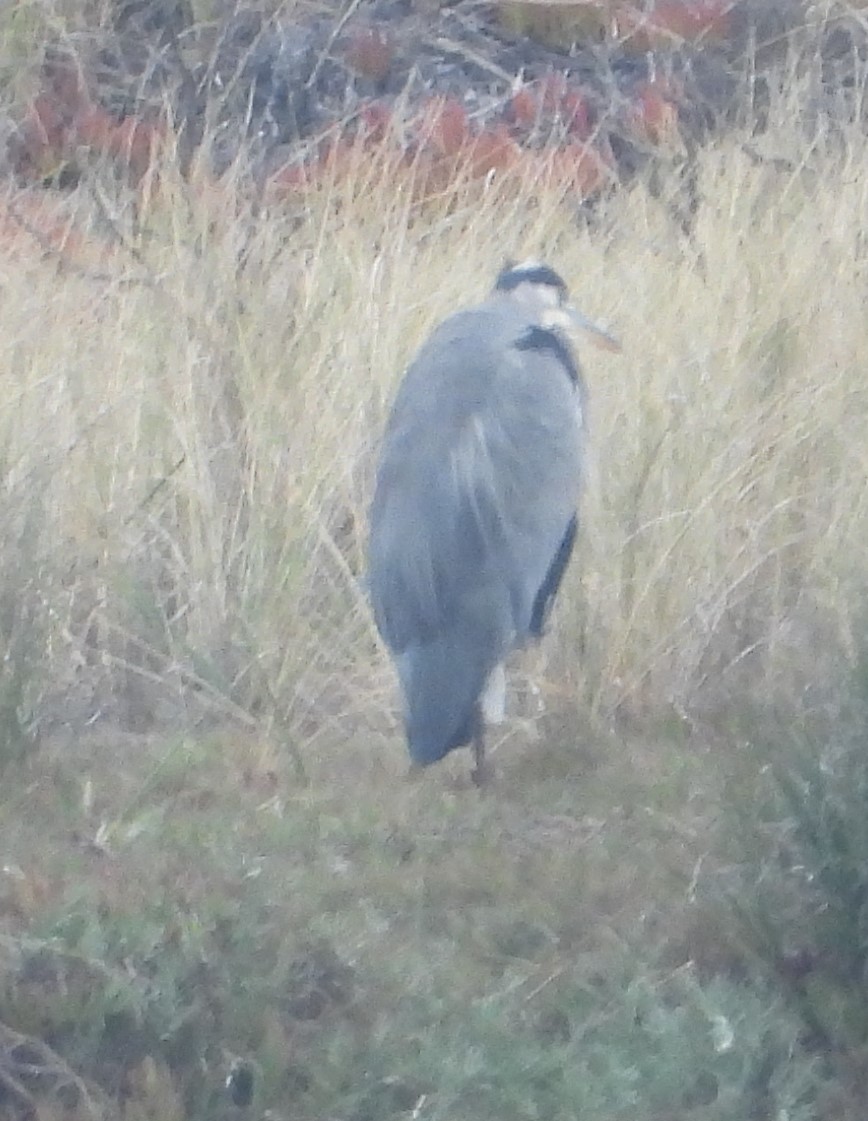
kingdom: Animalia
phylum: Chordata
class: Aves
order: Pelecaniformes
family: Ardeidae
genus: Ardea
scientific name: Ardea herodias
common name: Great blue heron
